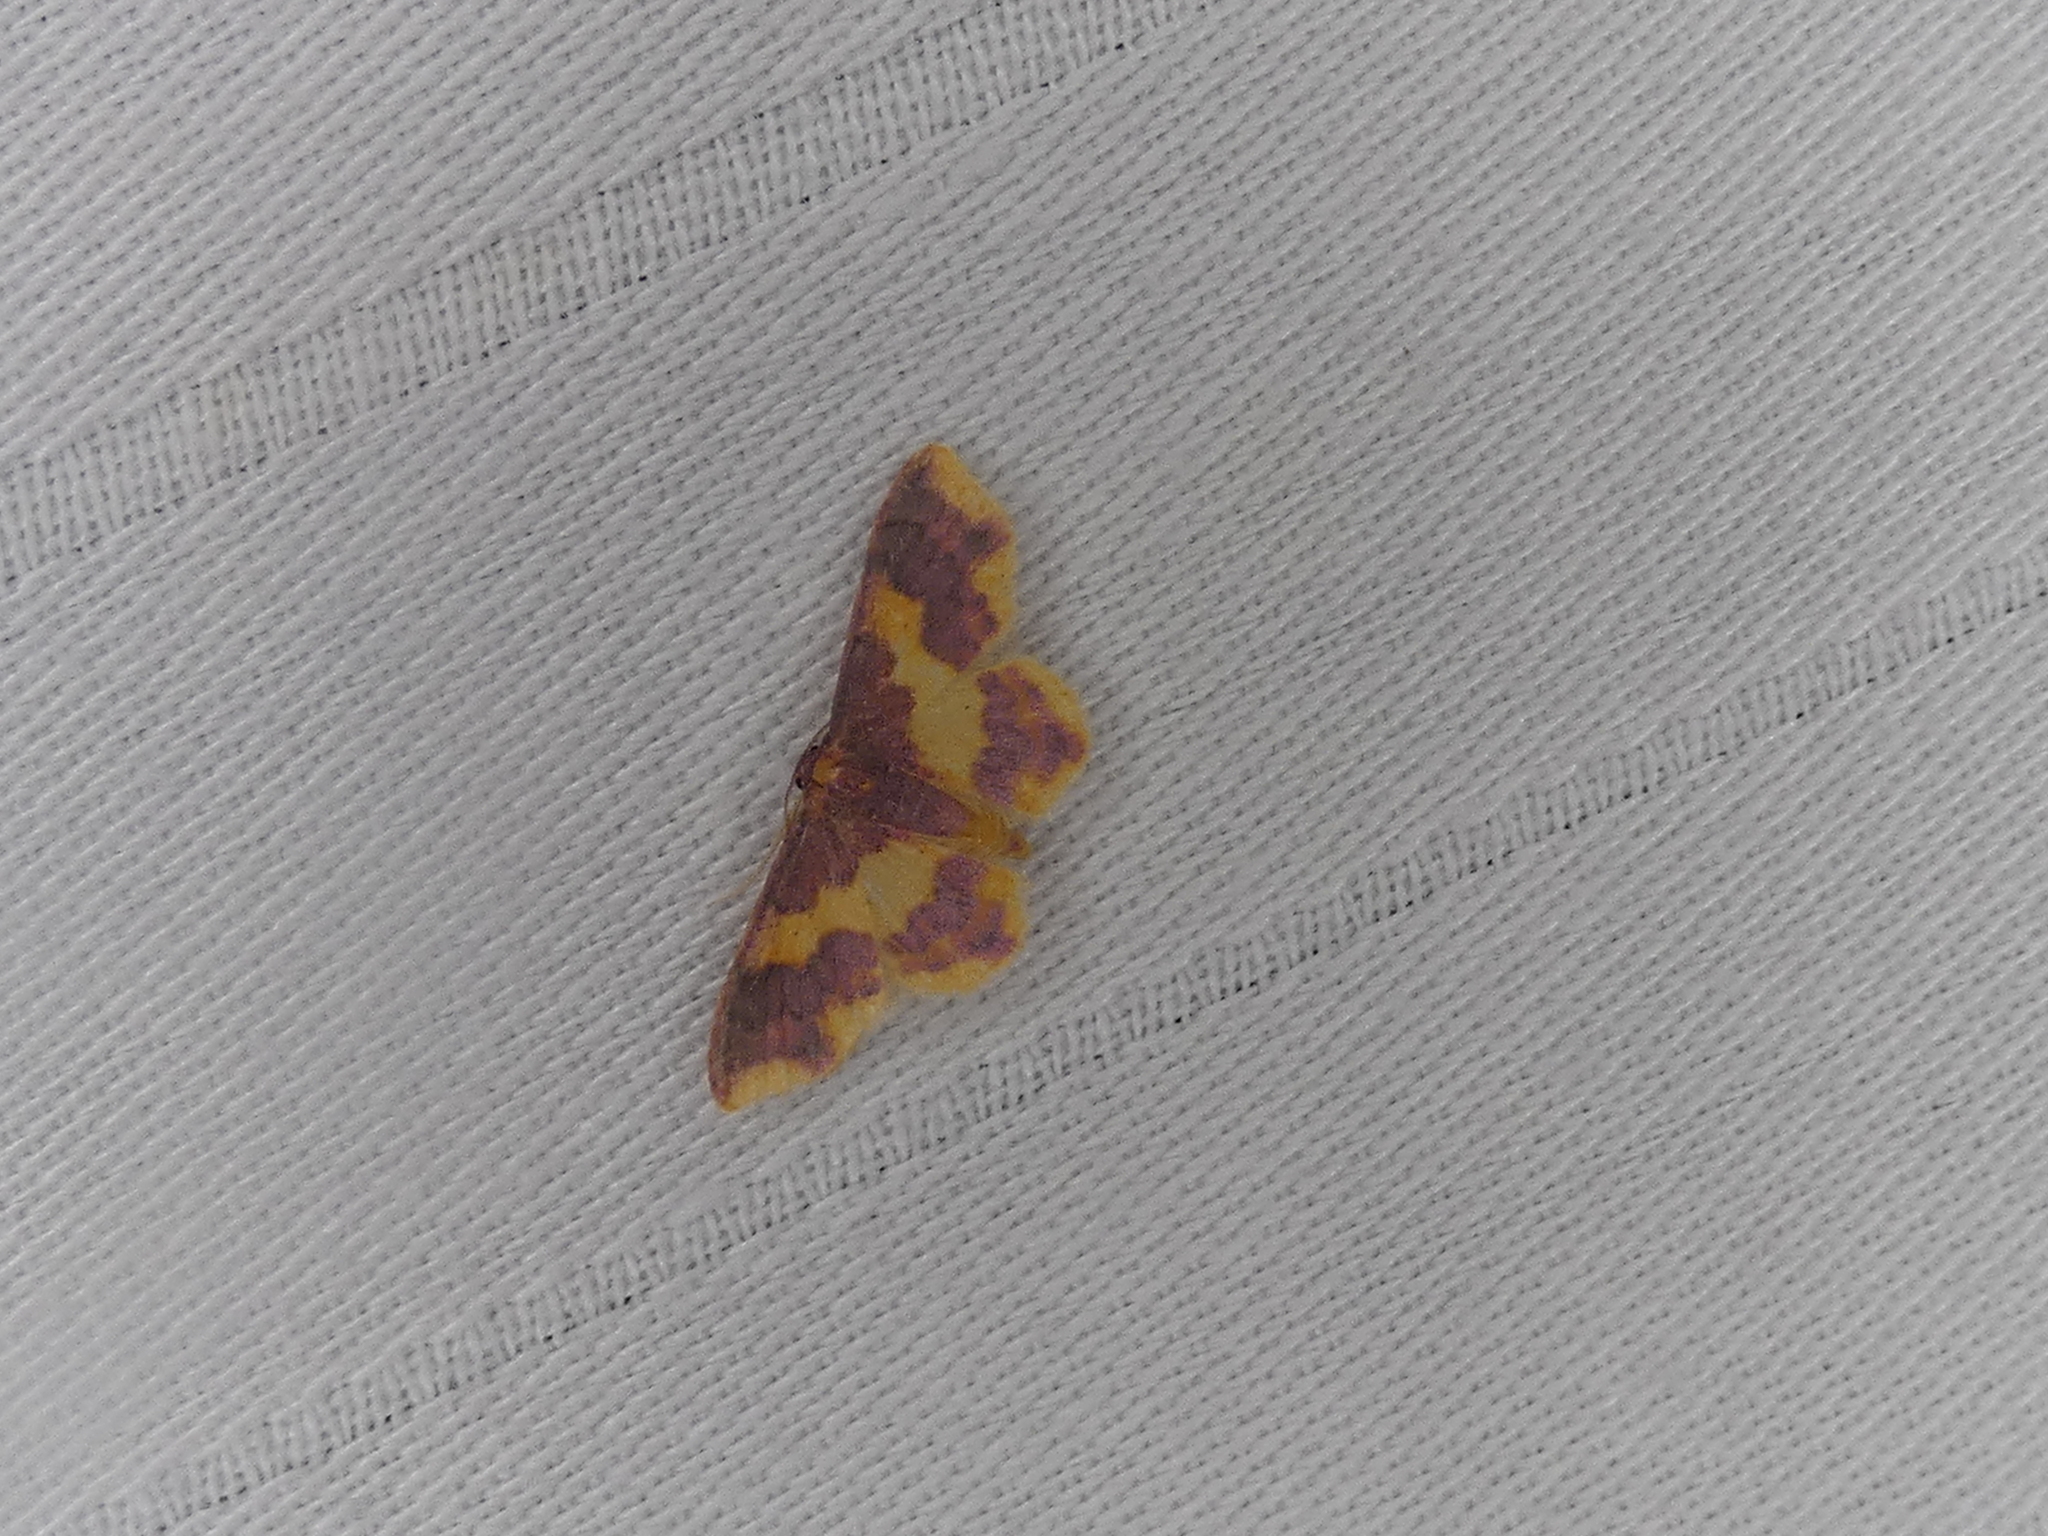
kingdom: Animalia
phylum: Arthropoda
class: Insecta
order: Lepidoptera
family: Geometridae
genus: Lophosis
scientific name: Lophosis labeculata
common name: Stained lophosis moth
